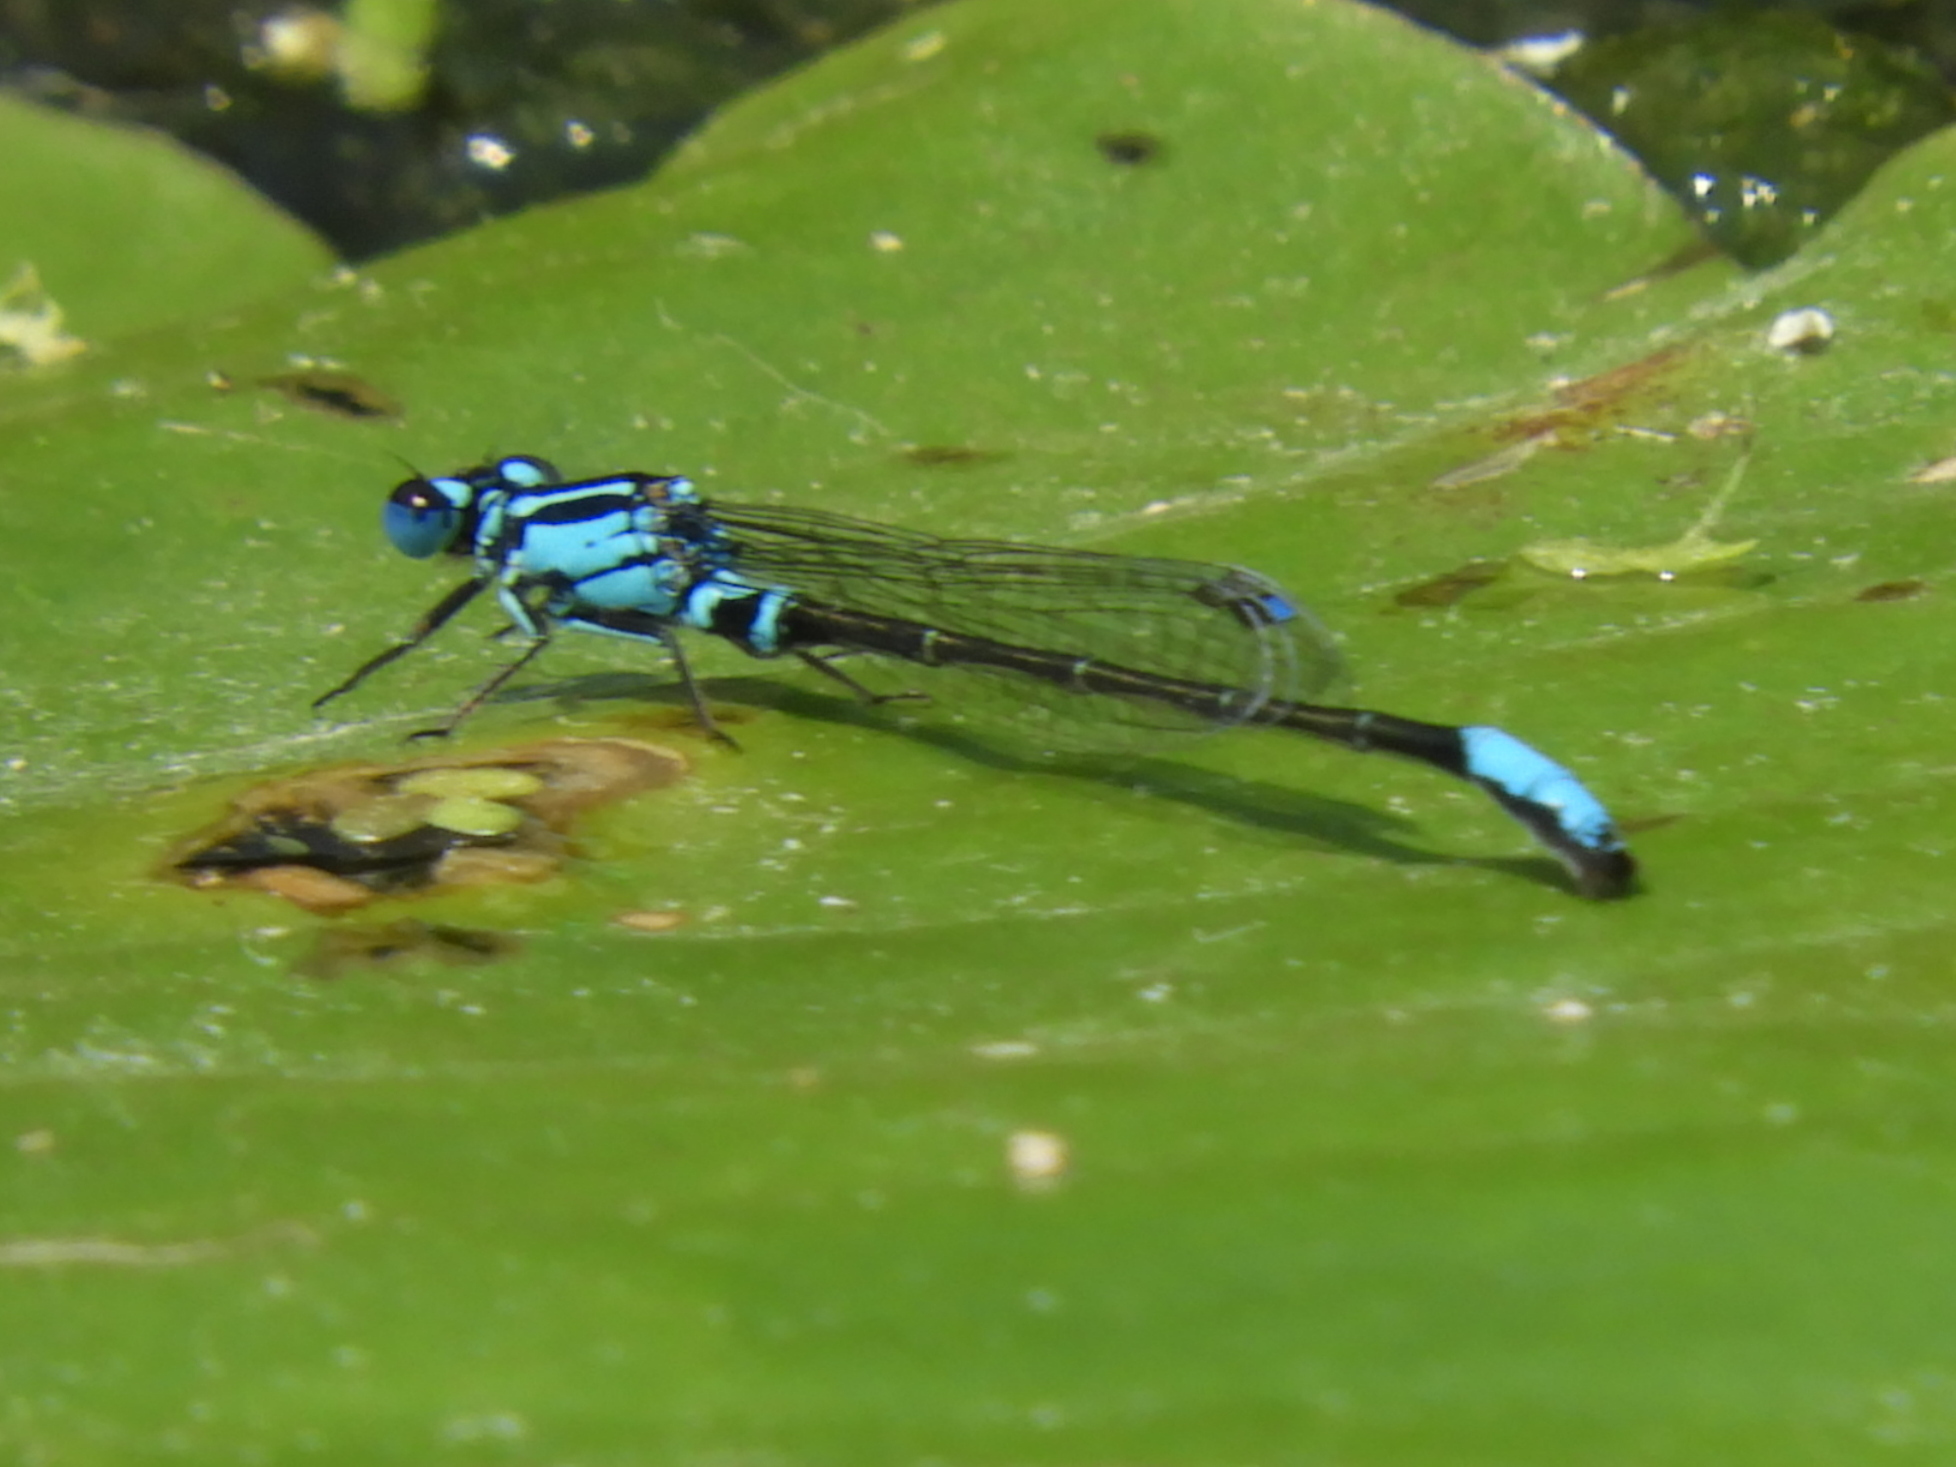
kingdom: Animalia
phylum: Arthropoda
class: Insecta
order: Odonata
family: Coenagrionidae
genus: Ischnura
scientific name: Ischnura kellicotti
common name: Lilypad forktail
